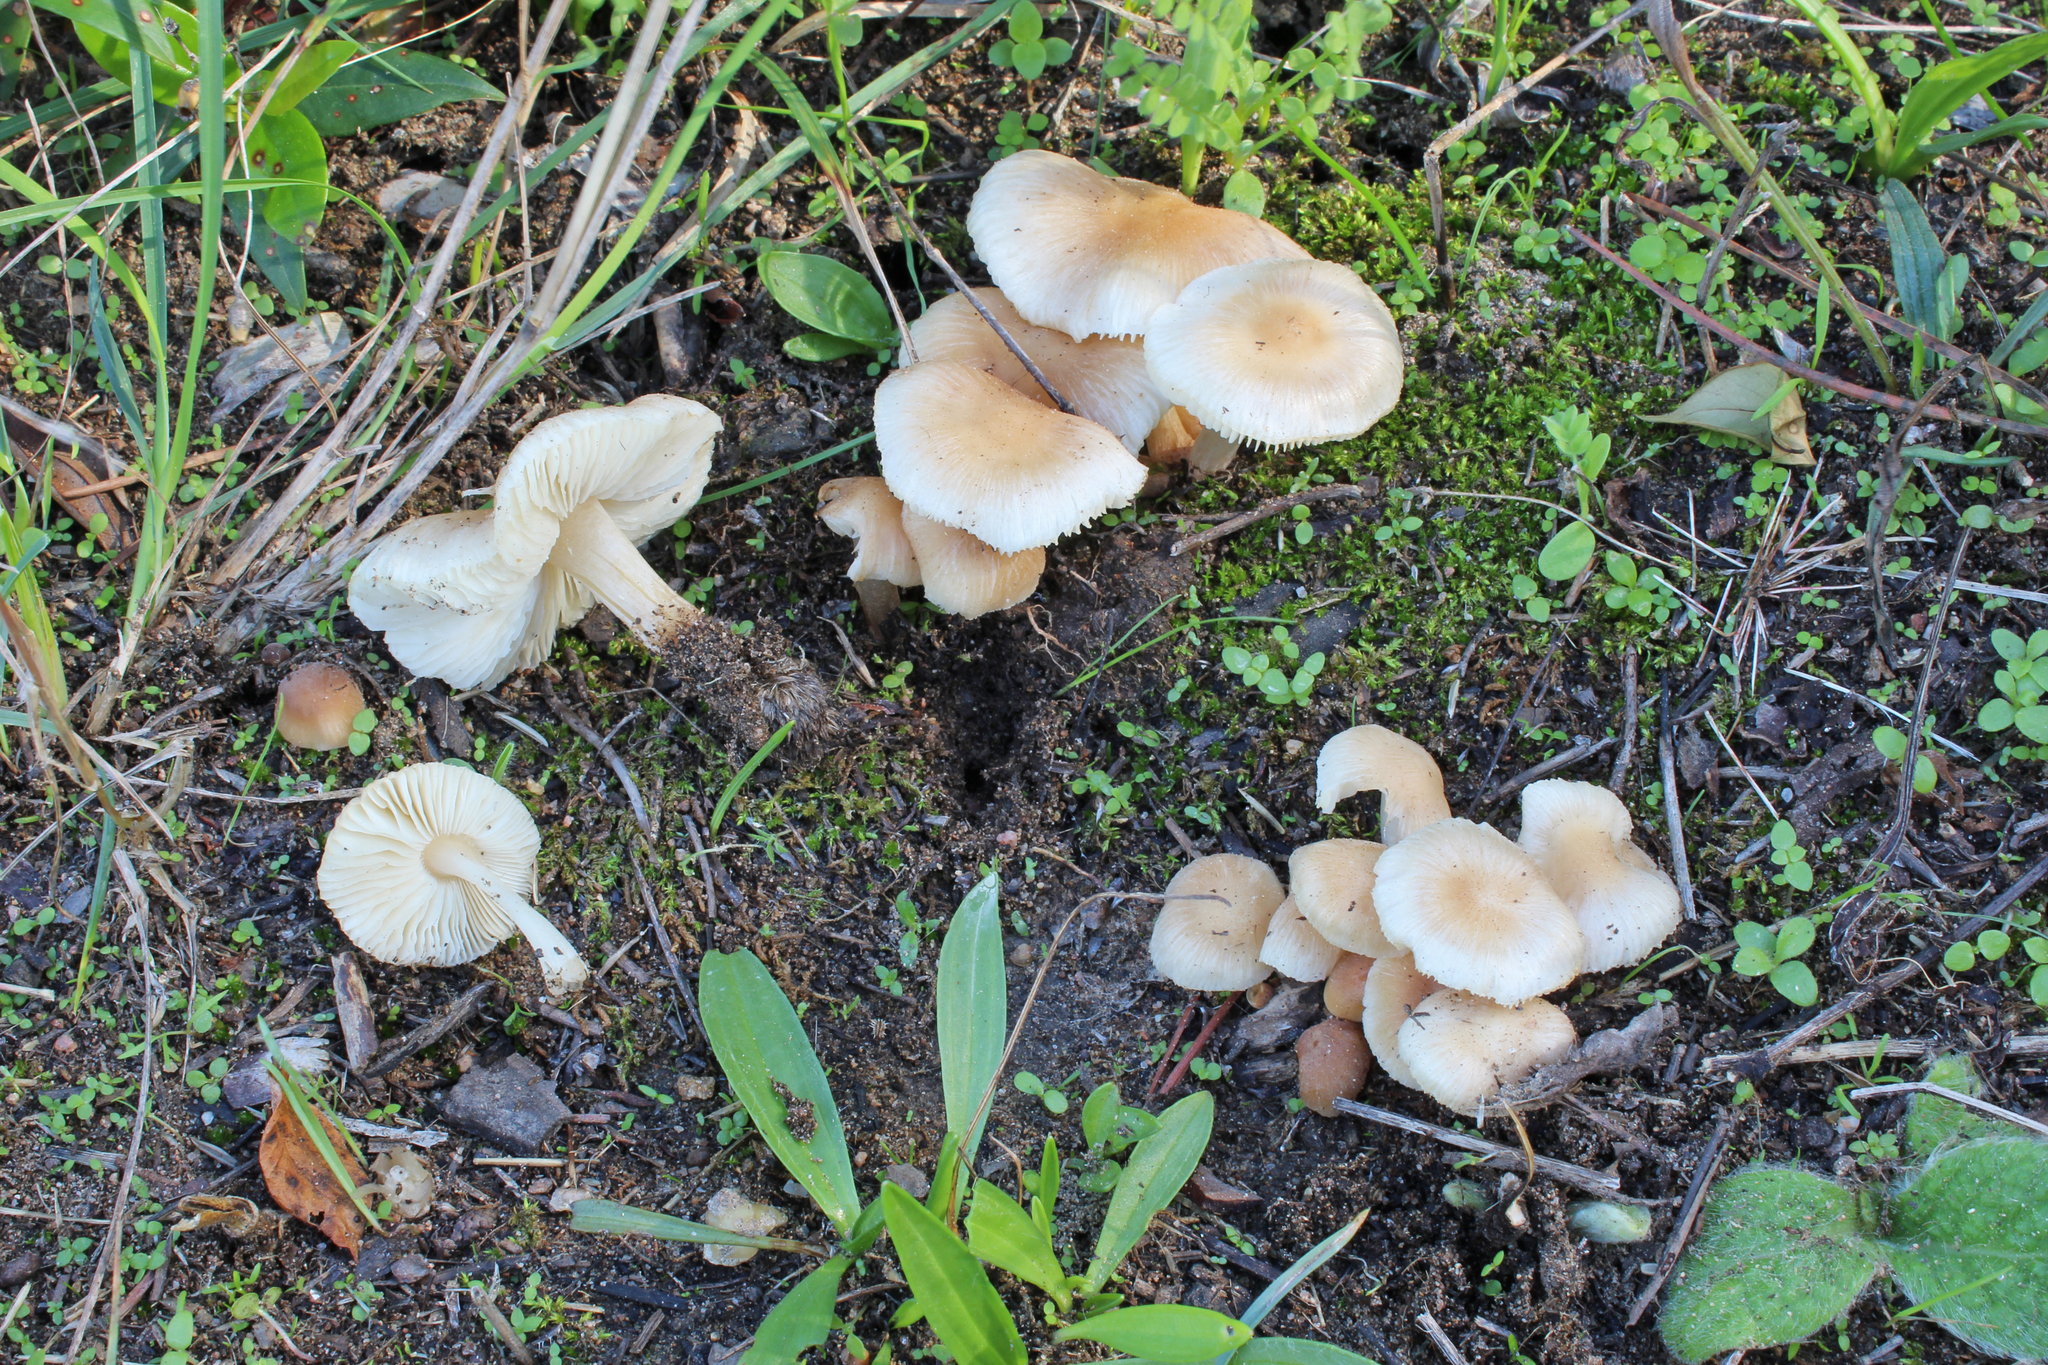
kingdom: Fungi
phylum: Basidiomycota
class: Agaricomycetes
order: Agaricales
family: Tricholomataceae
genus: Leucoinocybe
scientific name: Leucoinocybe lenta
